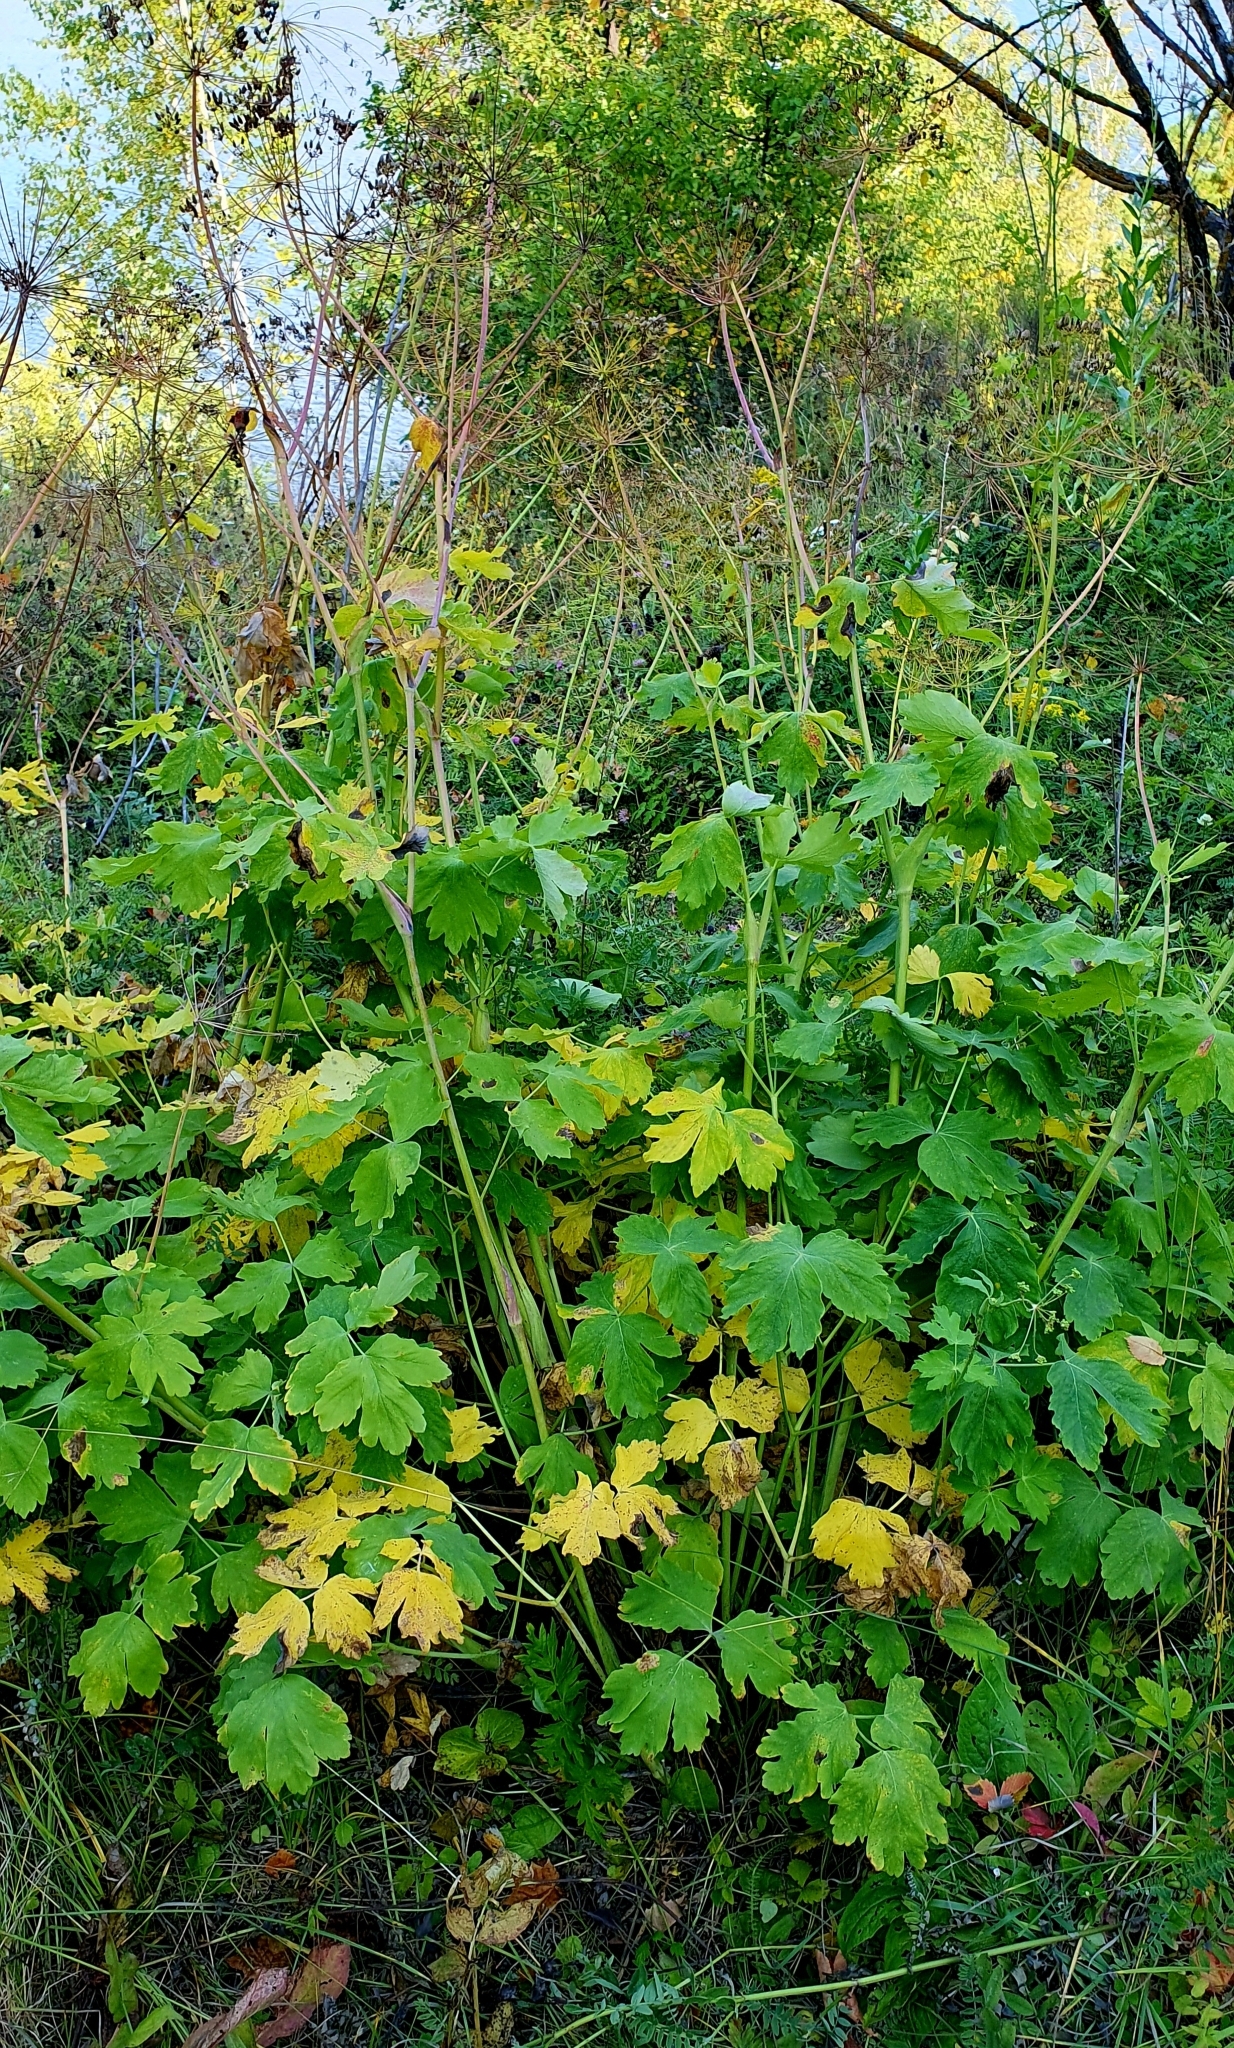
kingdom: Plantae
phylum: Tracheophyta
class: Magnoliopsida
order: Apiales
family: Apiaceae
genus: Laser
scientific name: Laser trilobum
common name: Laser
